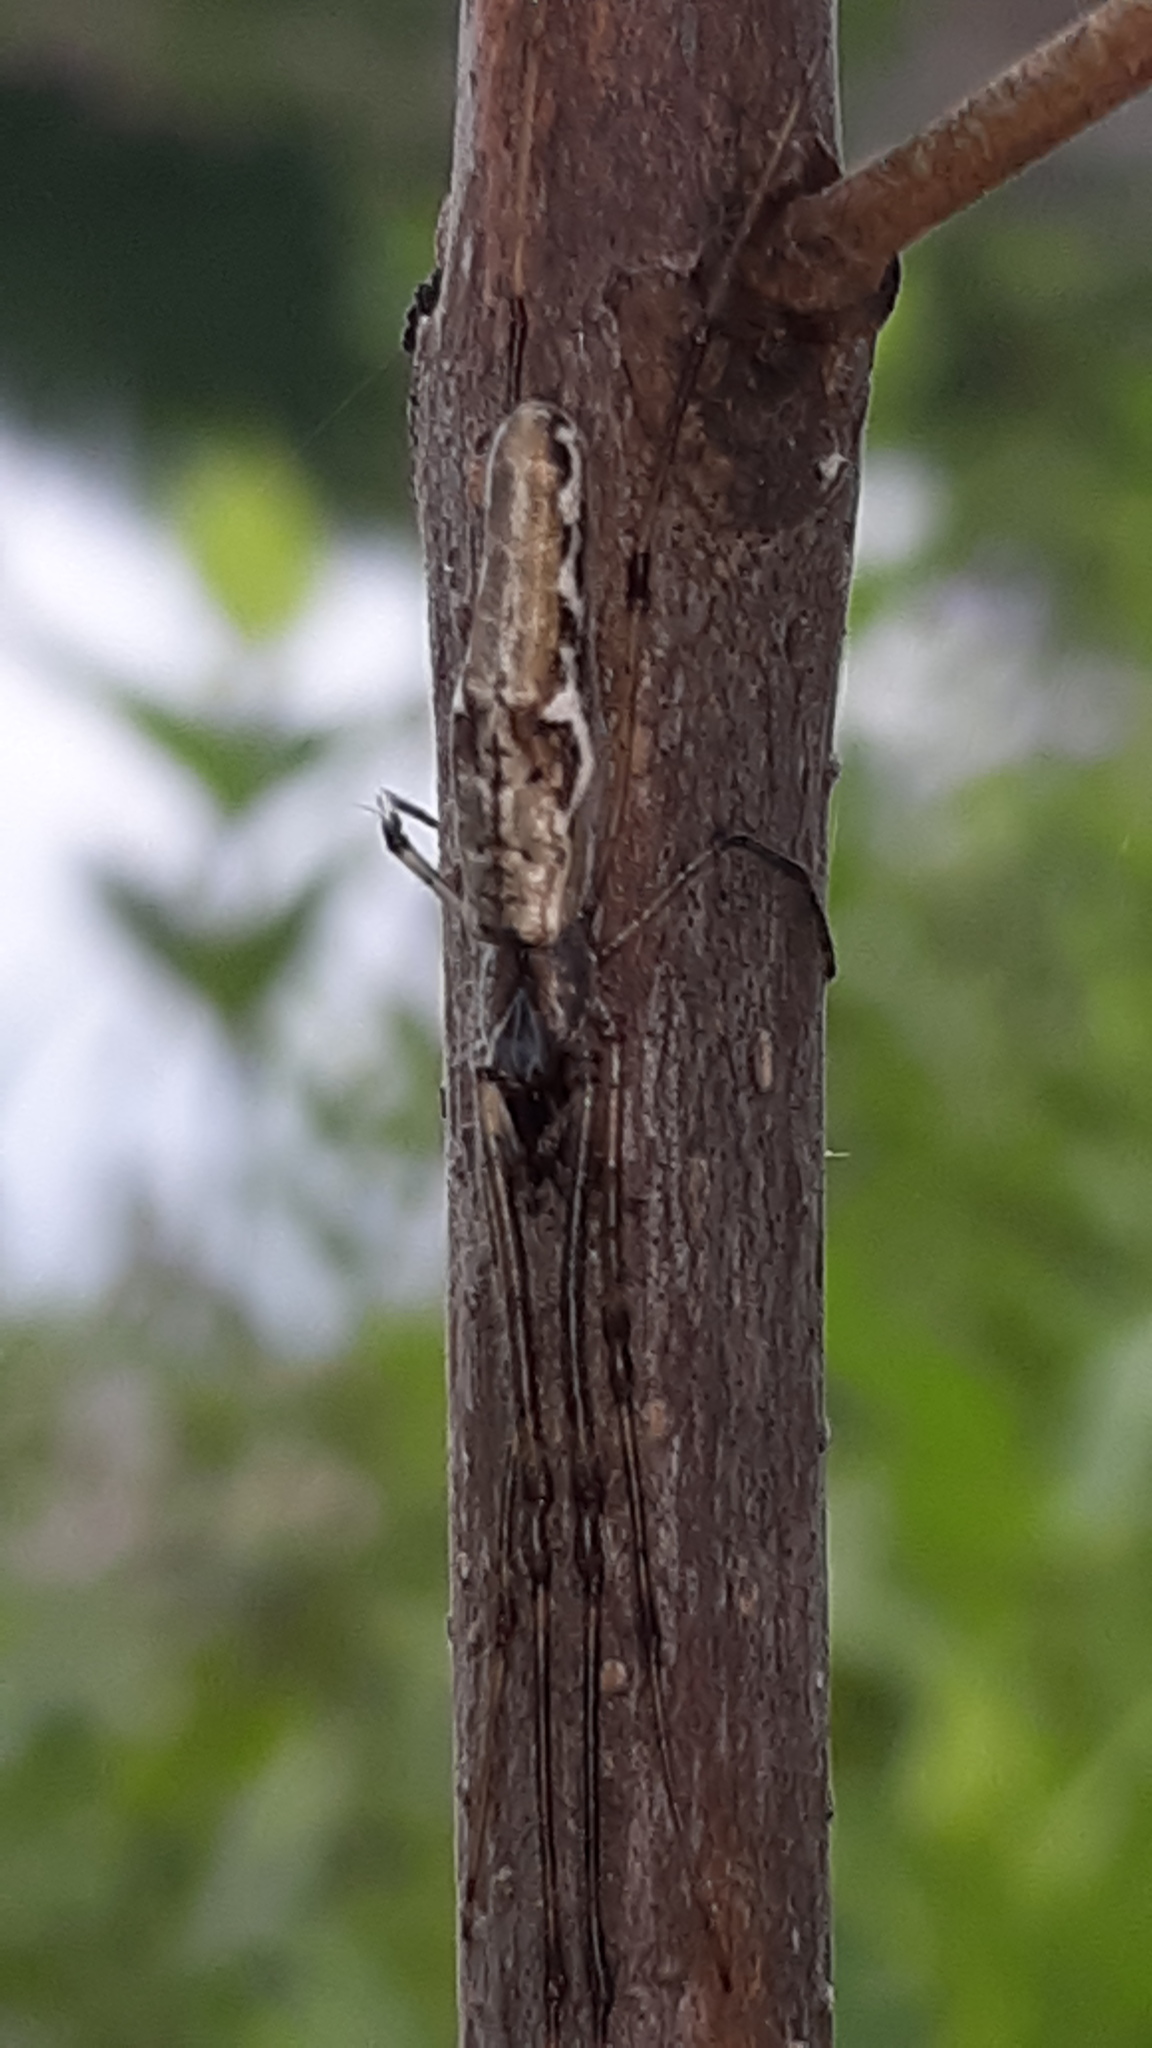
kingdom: Animalia
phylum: Arthropoda
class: Arachnida
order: Araneae
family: Tetragnathidae
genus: Tetragnatha
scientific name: Tetragnatha
